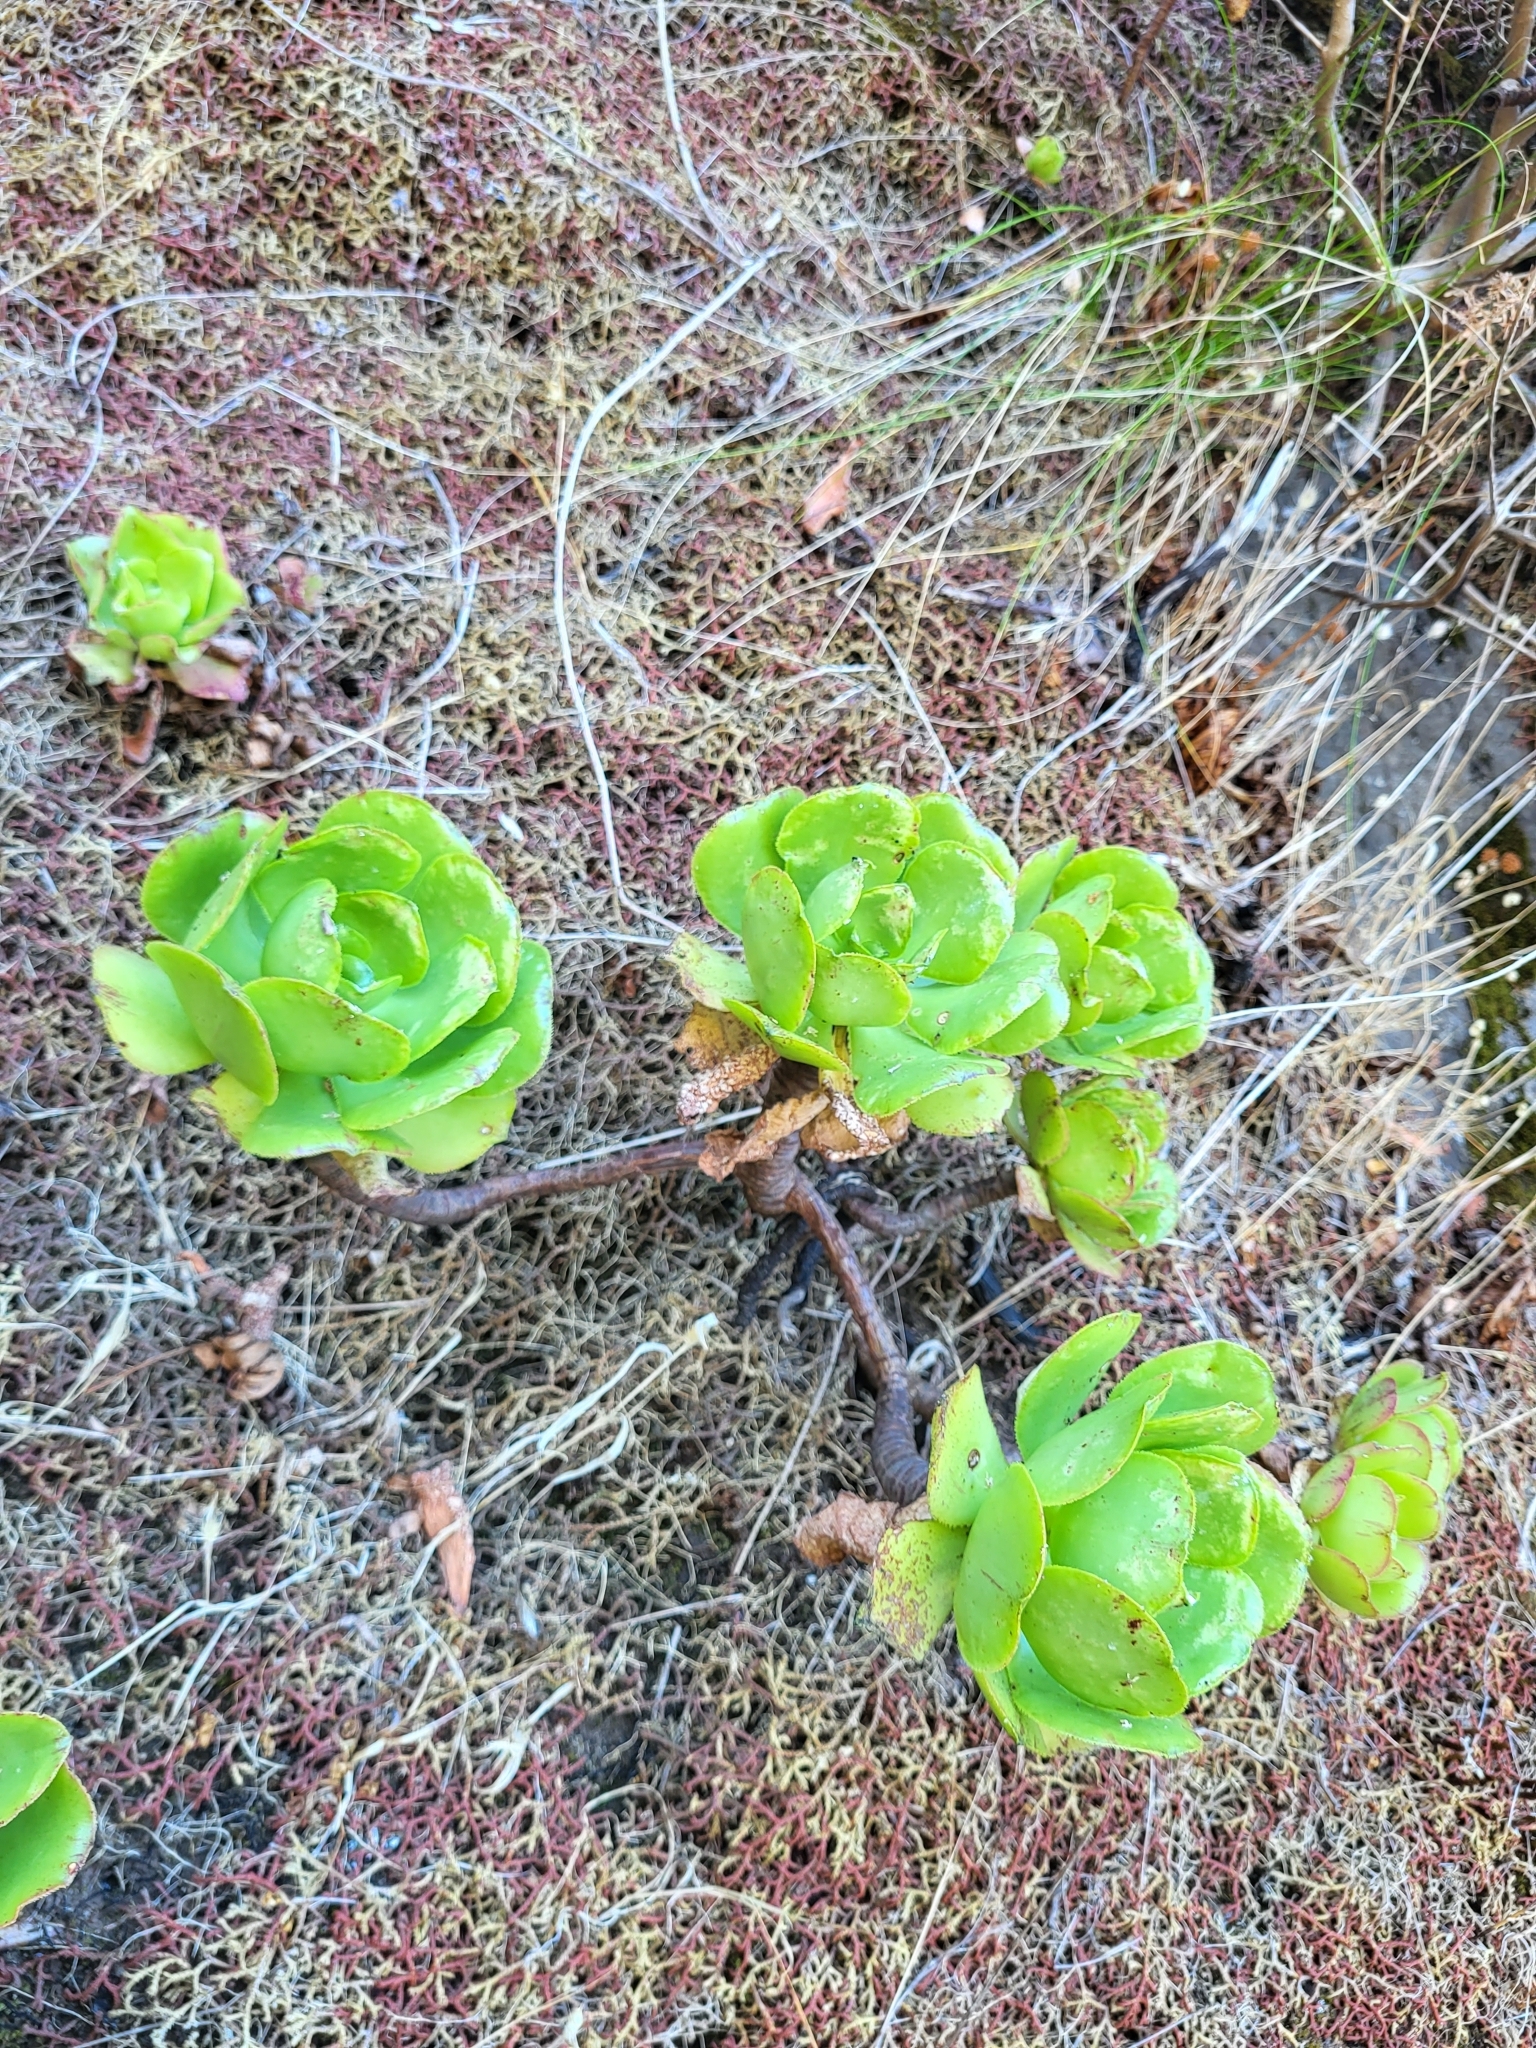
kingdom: Plantae
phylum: Tracheophyta
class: Magnoliopsida
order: Saxifragales
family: Crassulaceae
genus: Aeonium
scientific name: Aeonium glutinosum
